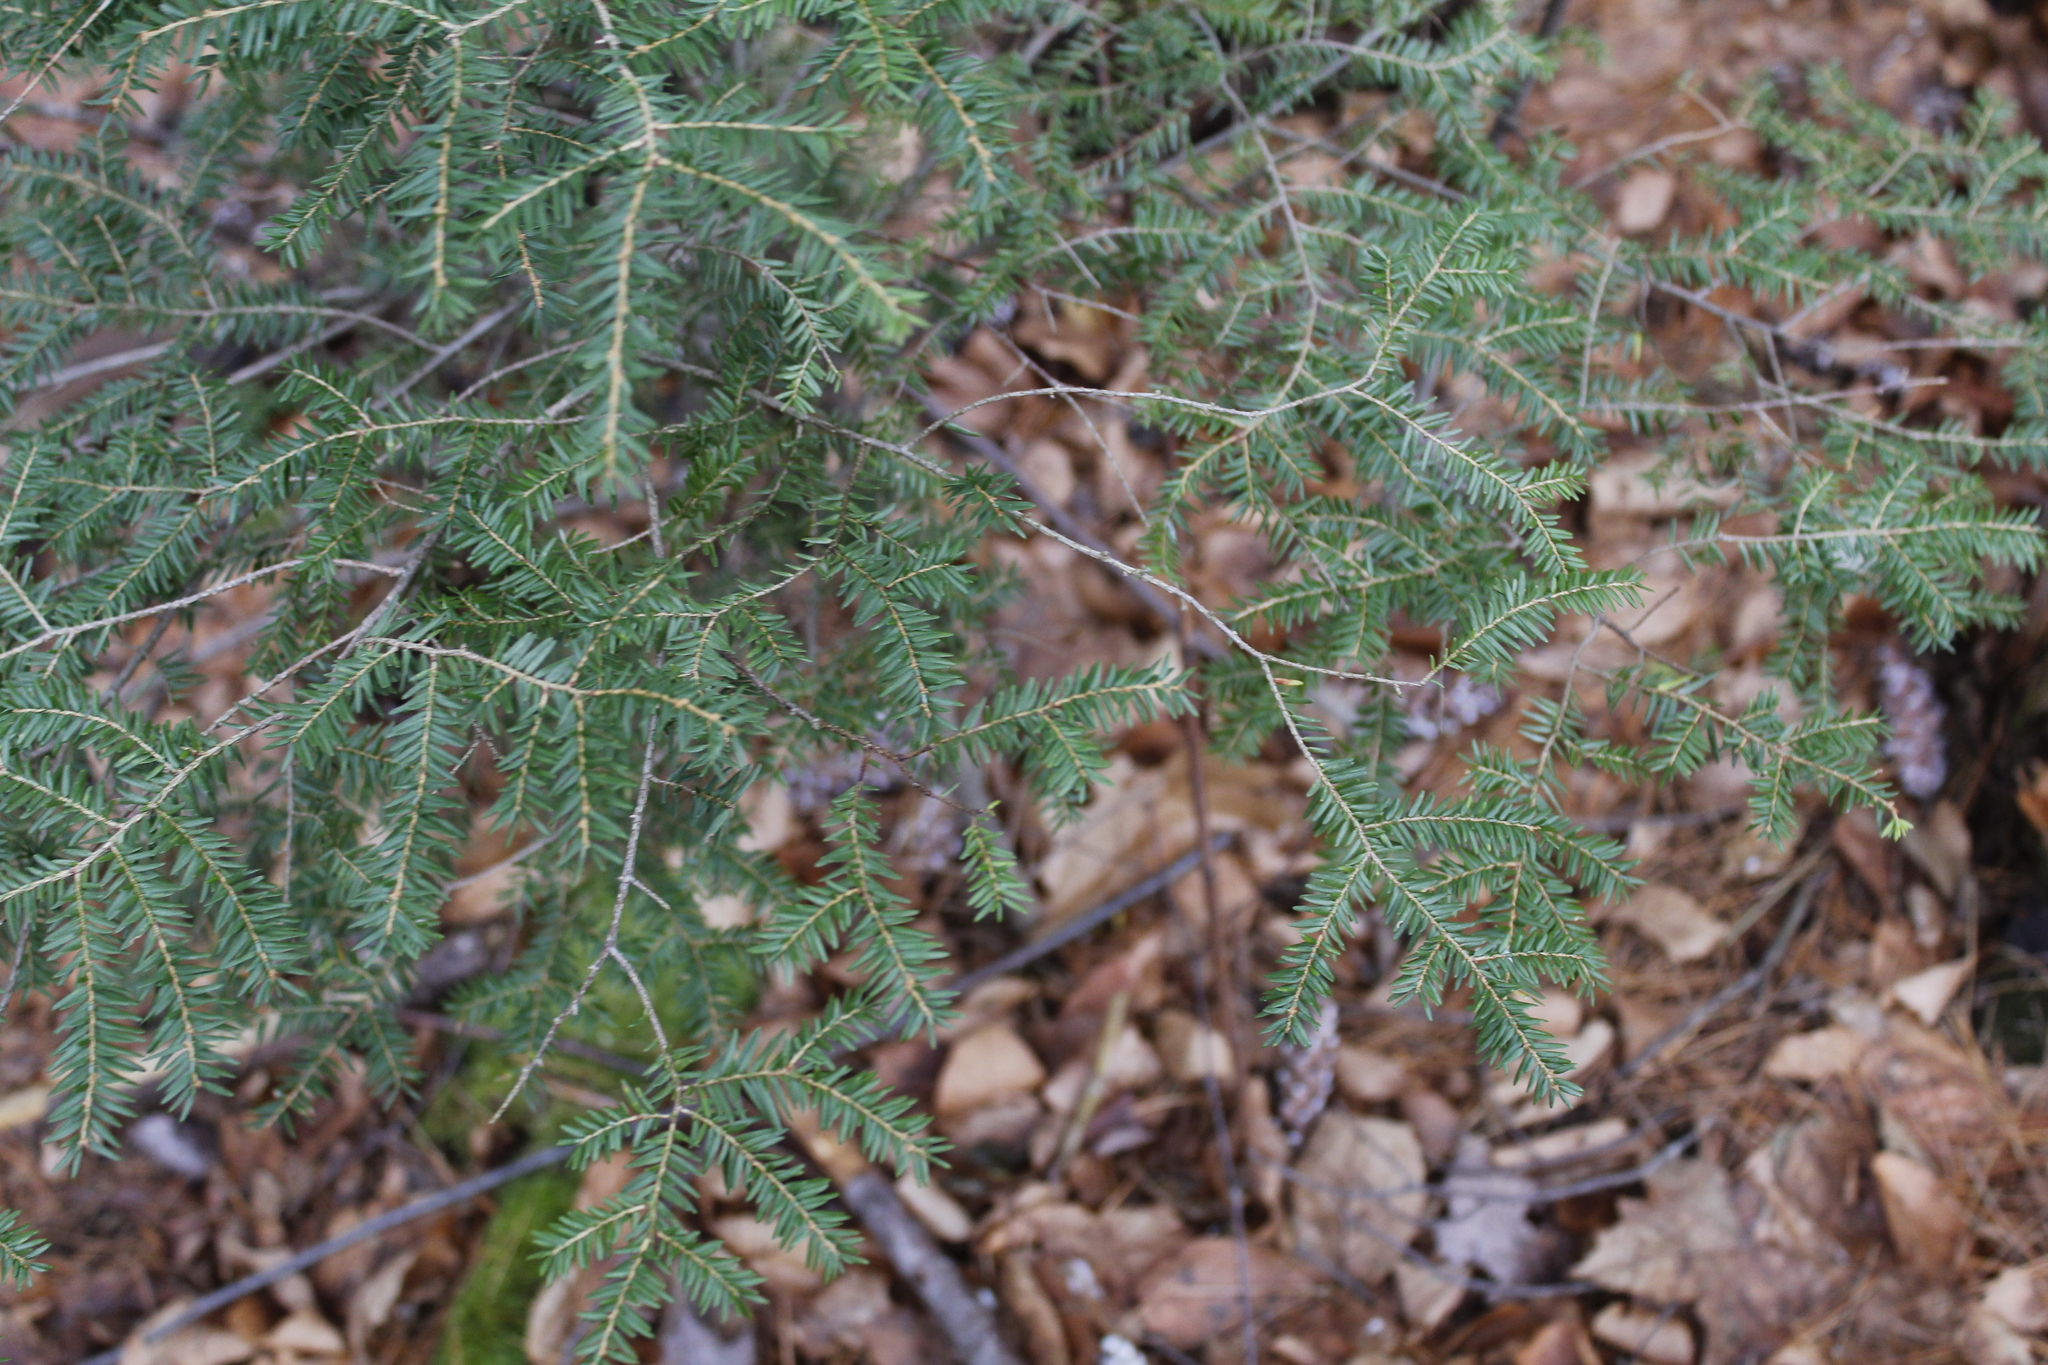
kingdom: Plantae
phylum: Tracheophyta
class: Pinopsida
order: Pinales
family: Pinaceae
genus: Tsuga
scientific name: Tsuga canadensis
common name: Eastern hemlock
